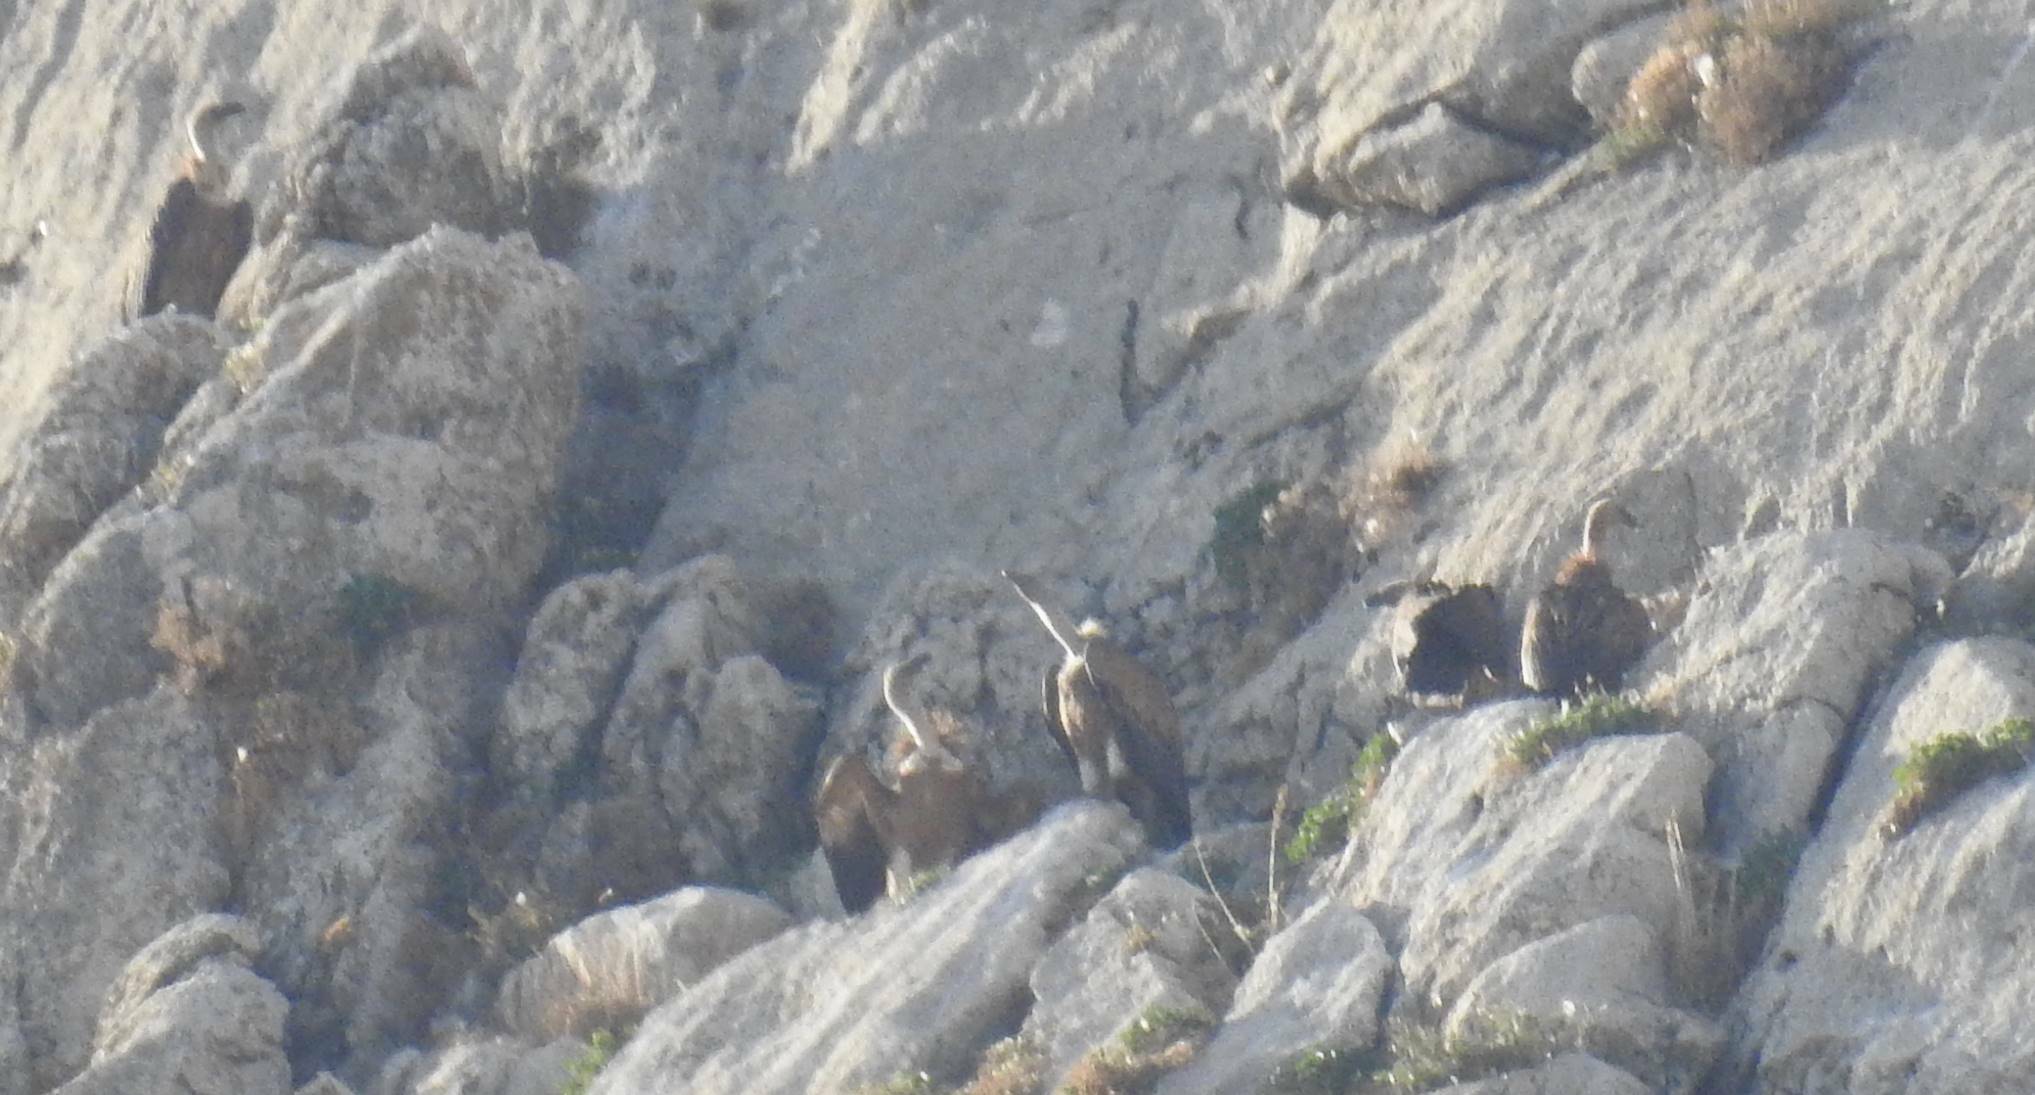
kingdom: Animalia
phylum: Chordata
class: Aves
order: Accipitriformes
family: Accipitridae
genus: Gyps
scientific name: Gyps fulvus
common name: Griffon vulture
